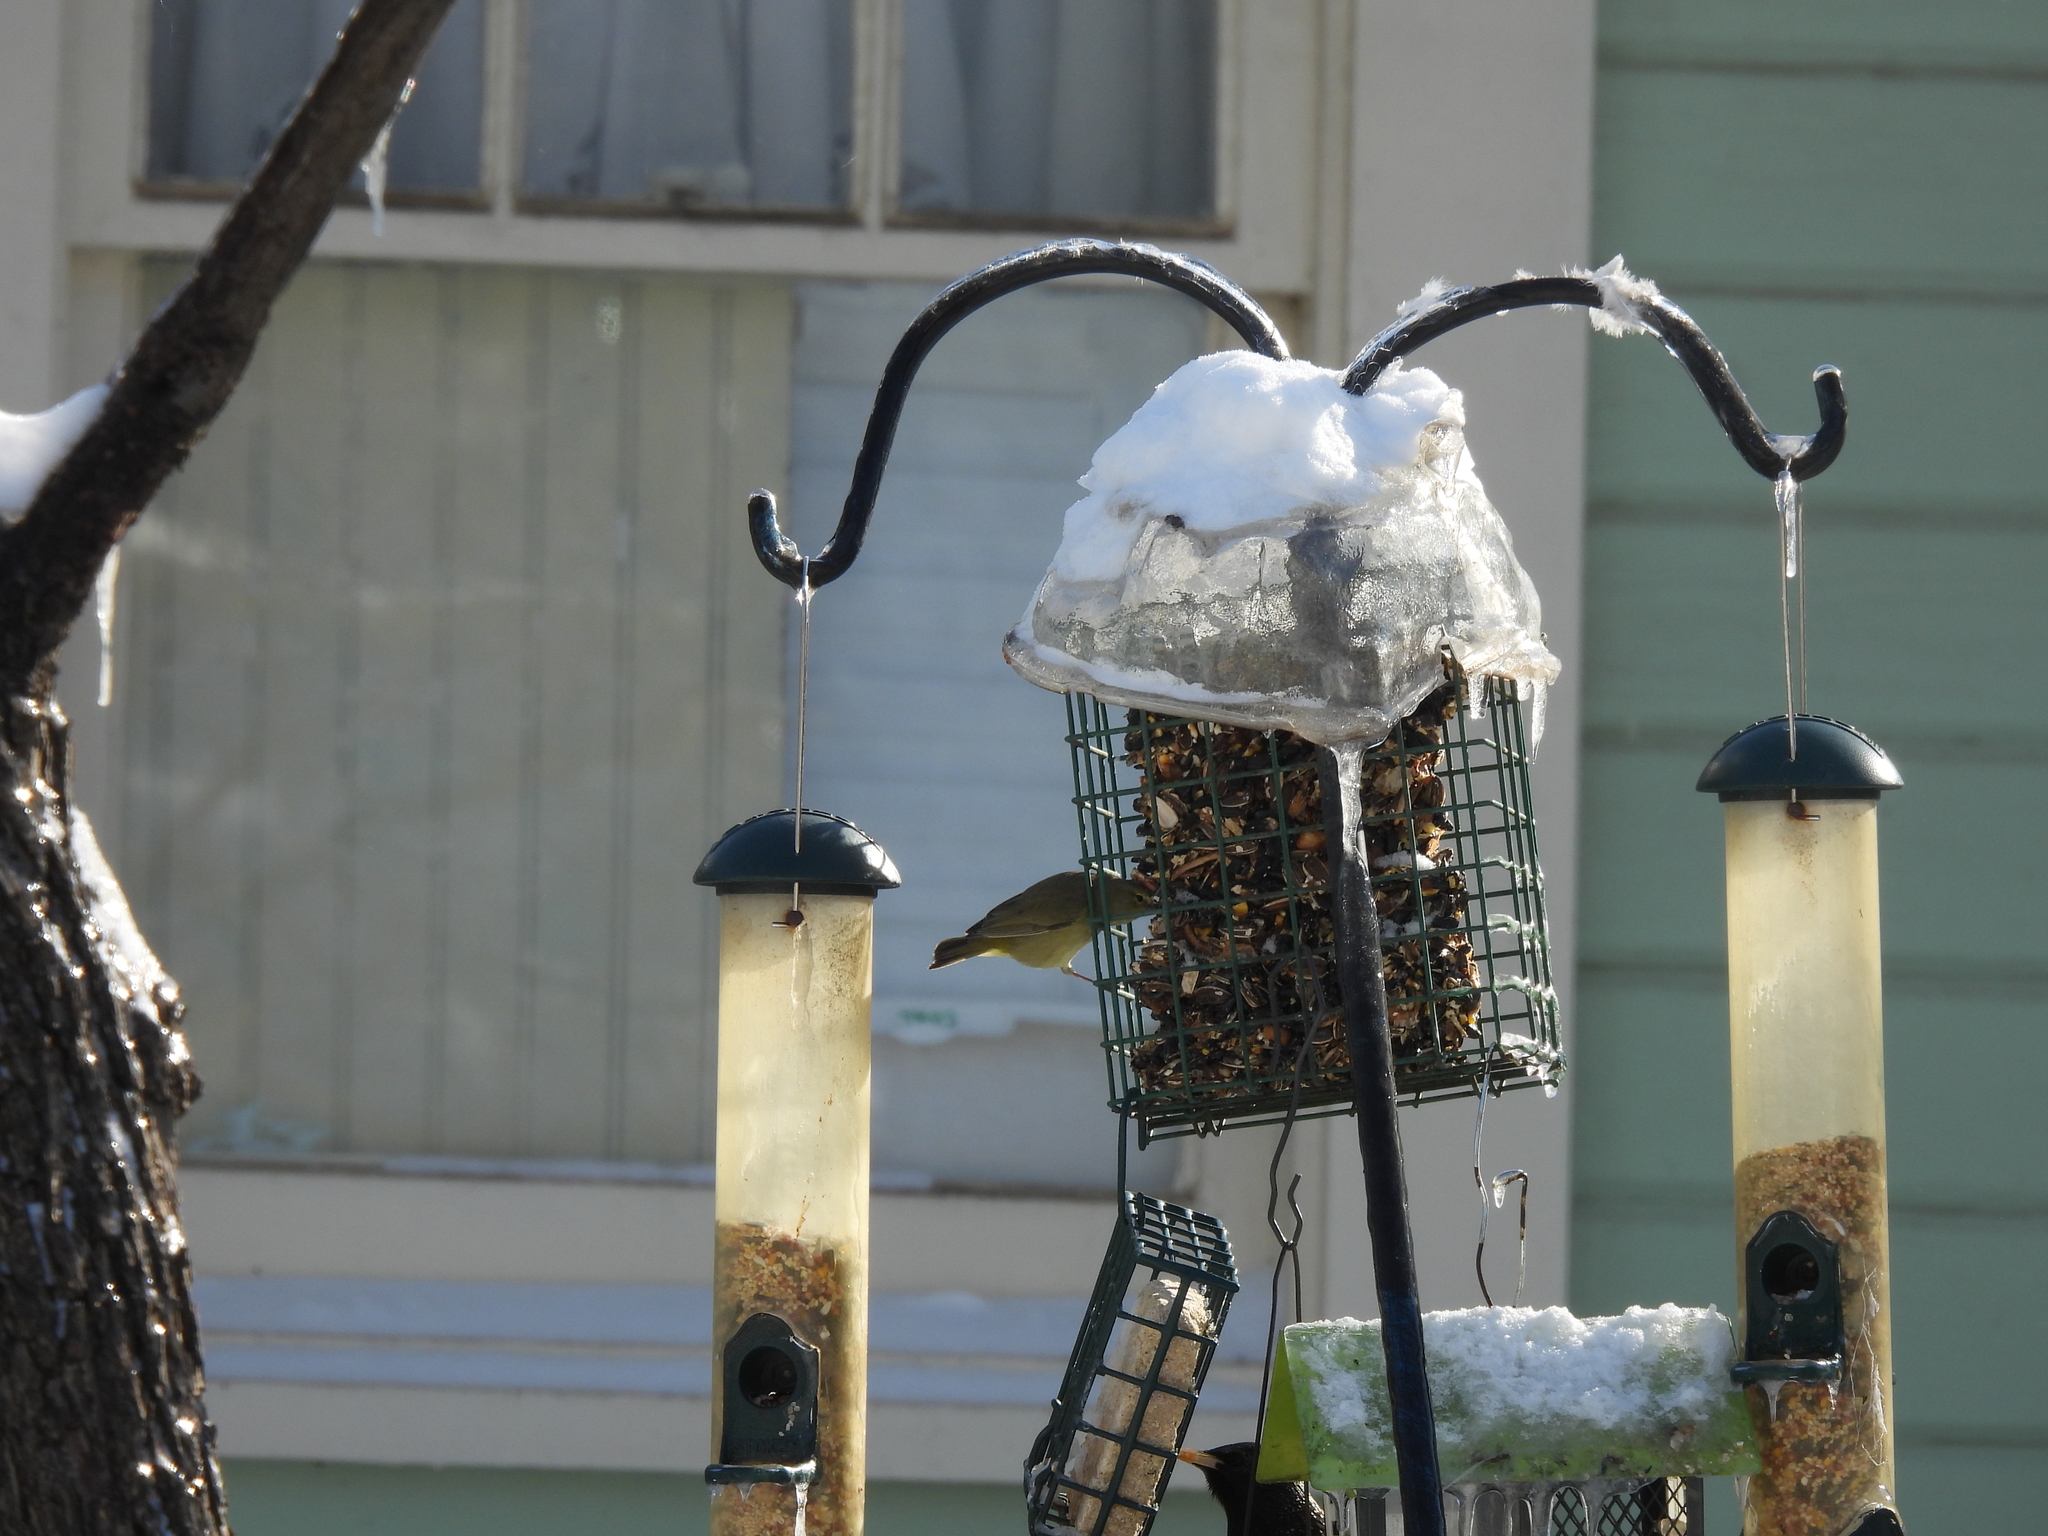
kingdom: Animalia
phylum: Chordata
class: Aves
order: Passeriformes
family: Parulidae
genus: Leiothlypis
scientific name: Leiothlypis celata
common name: Orange-crowned warbler
